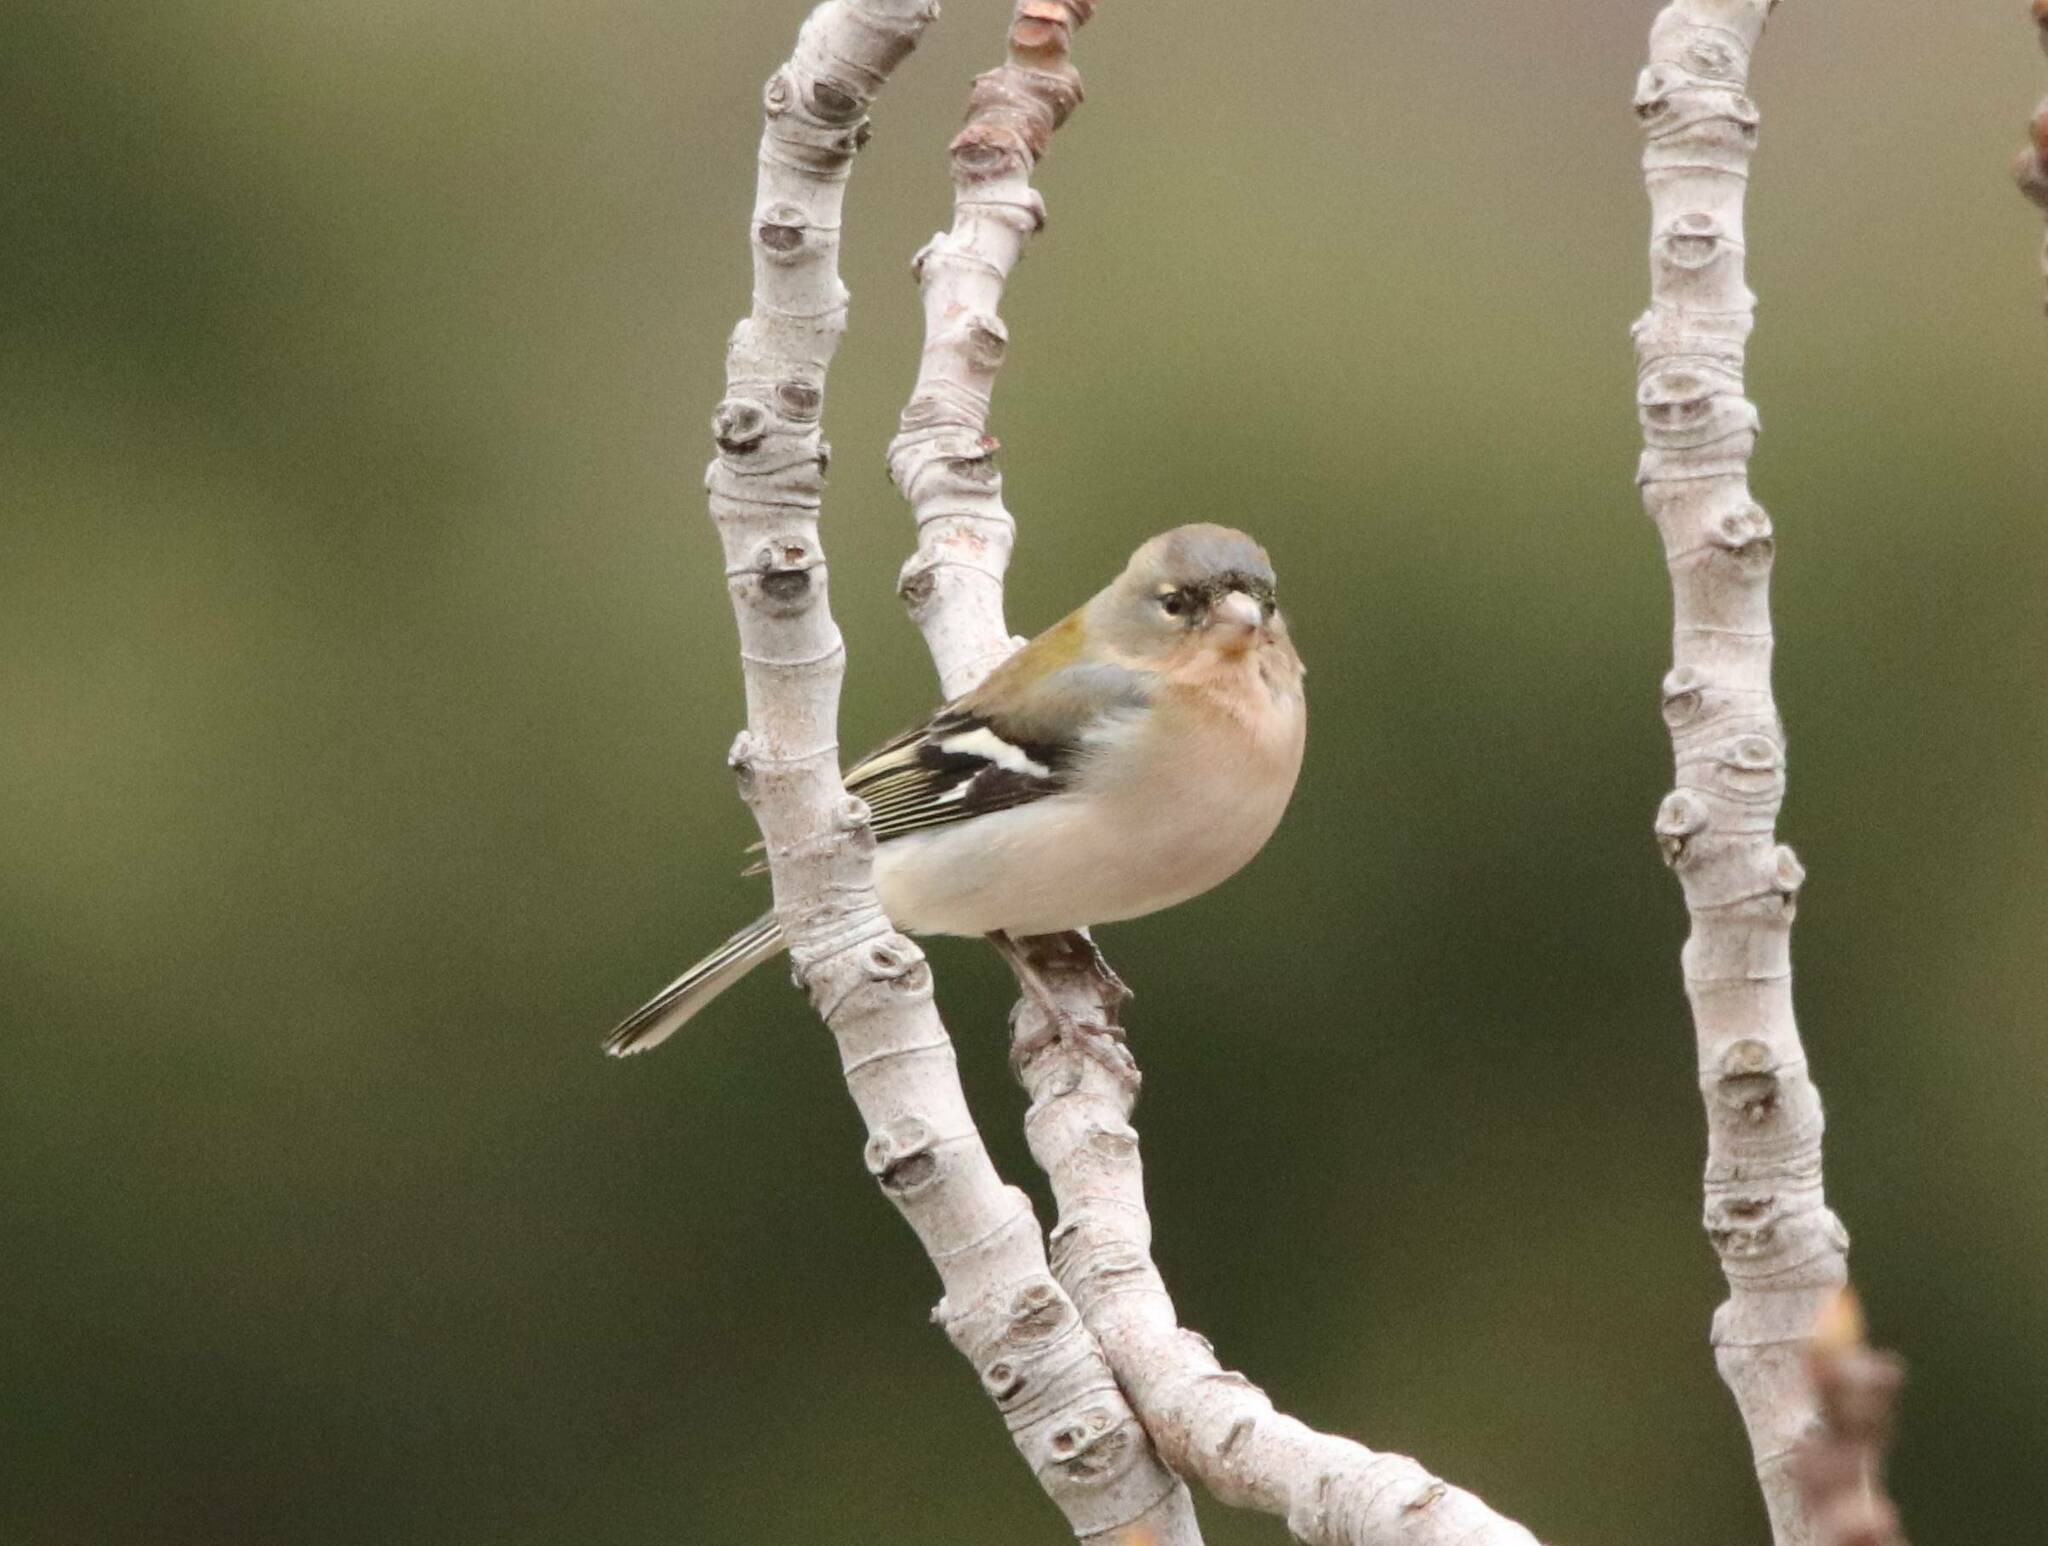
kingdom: Animalia
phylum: Chordata
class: Aves
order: Passeriformes
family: Fringillidae
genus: Fringilla
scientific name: Fringilla spodiogenys
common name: African chaffinch
